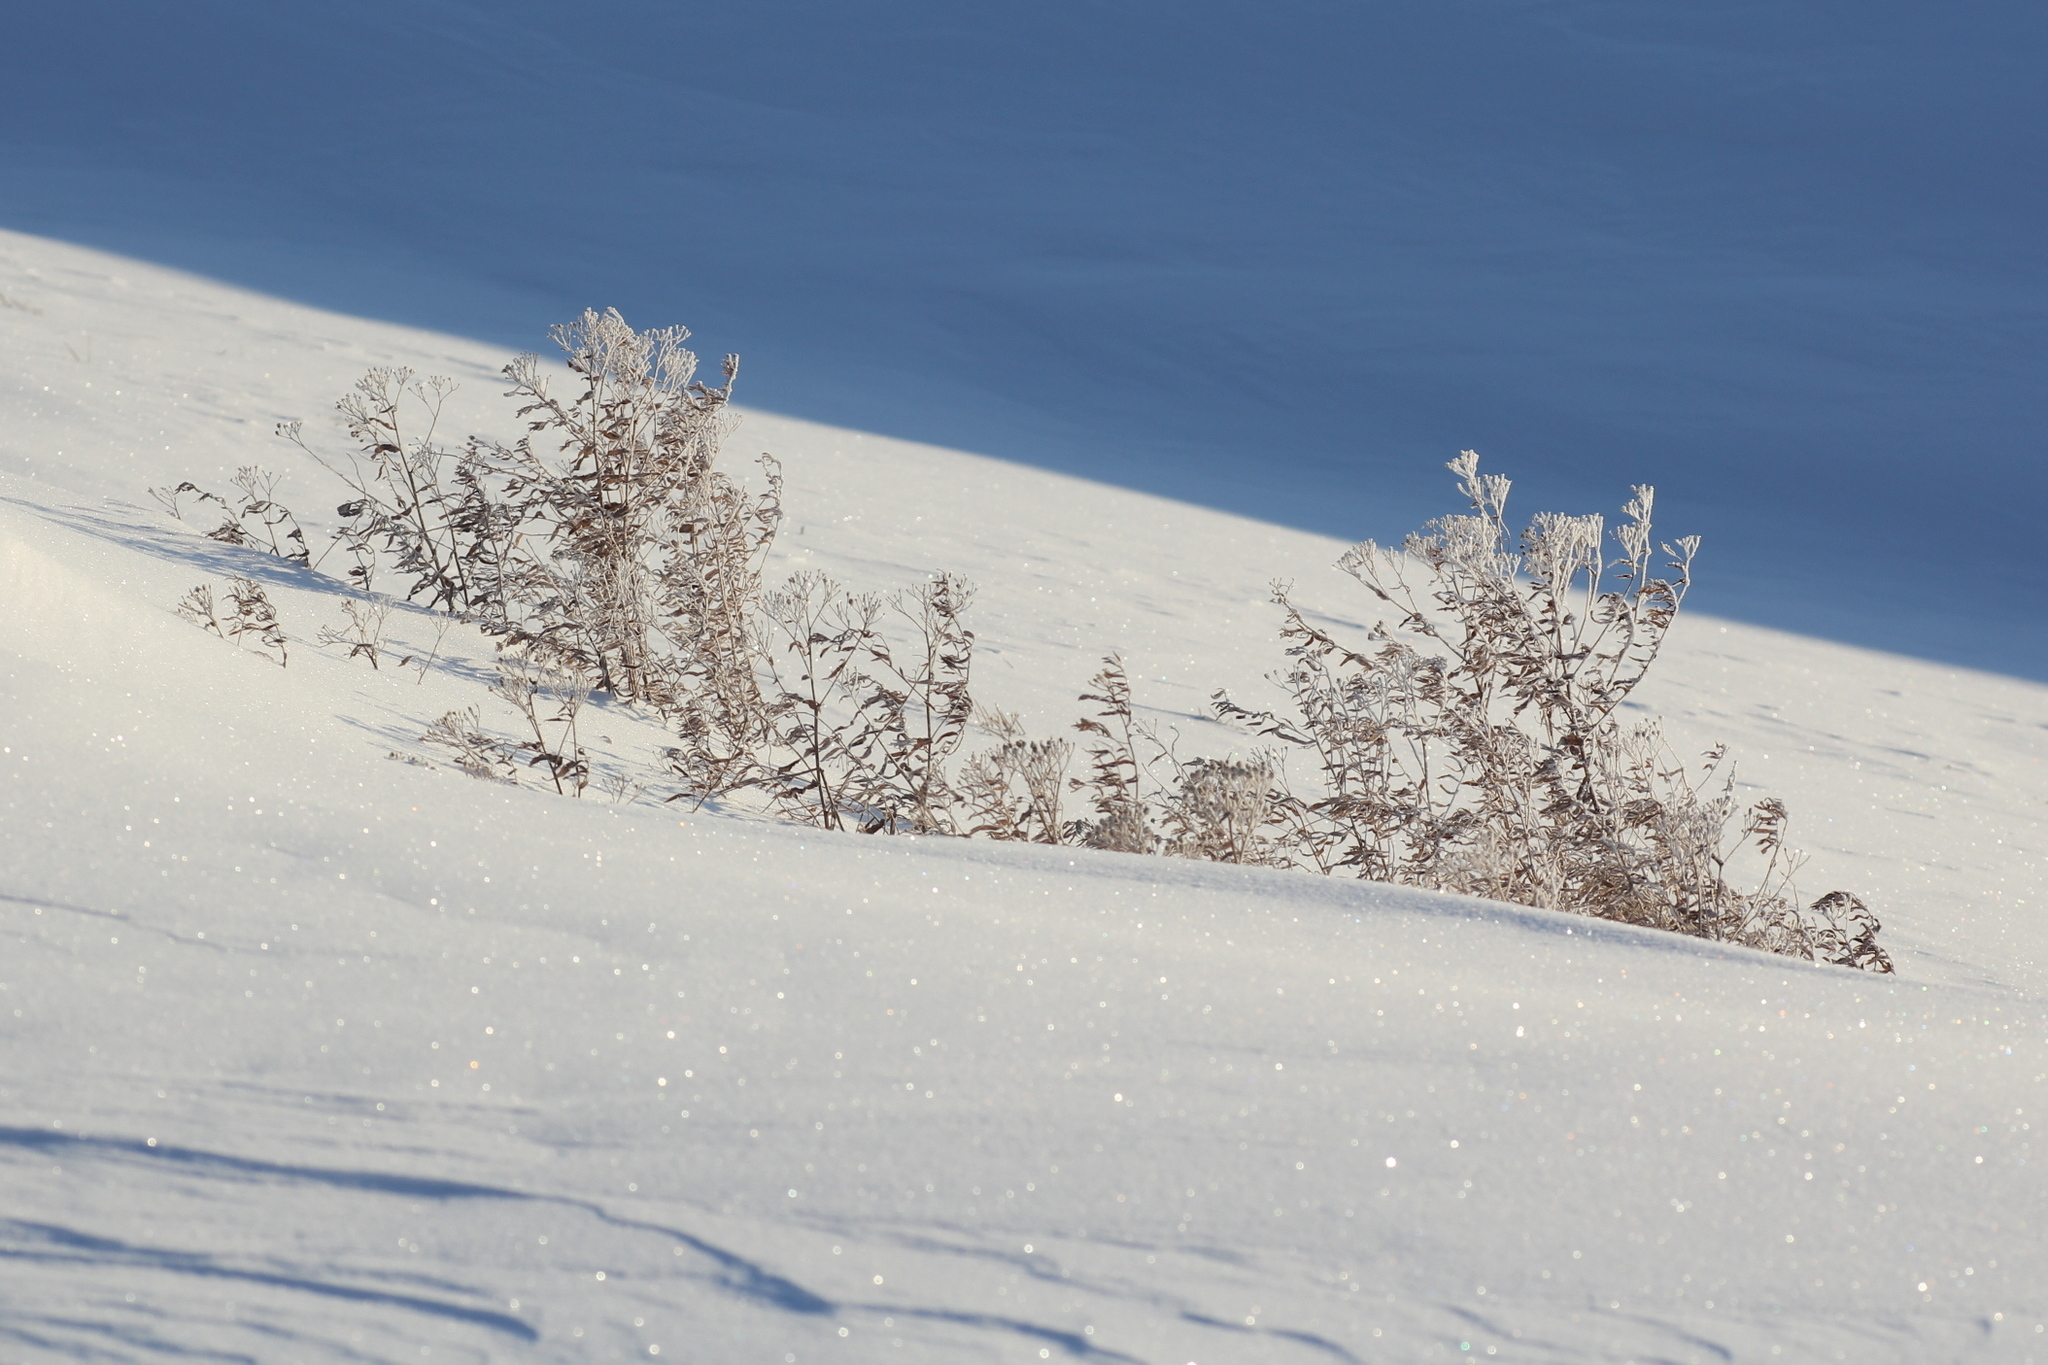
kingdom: Plantae
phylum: Tracheophyta
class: Magnoliopsida
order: Asterales
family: Asteraceae
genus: Achillea
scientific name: Achillea salicifolia
